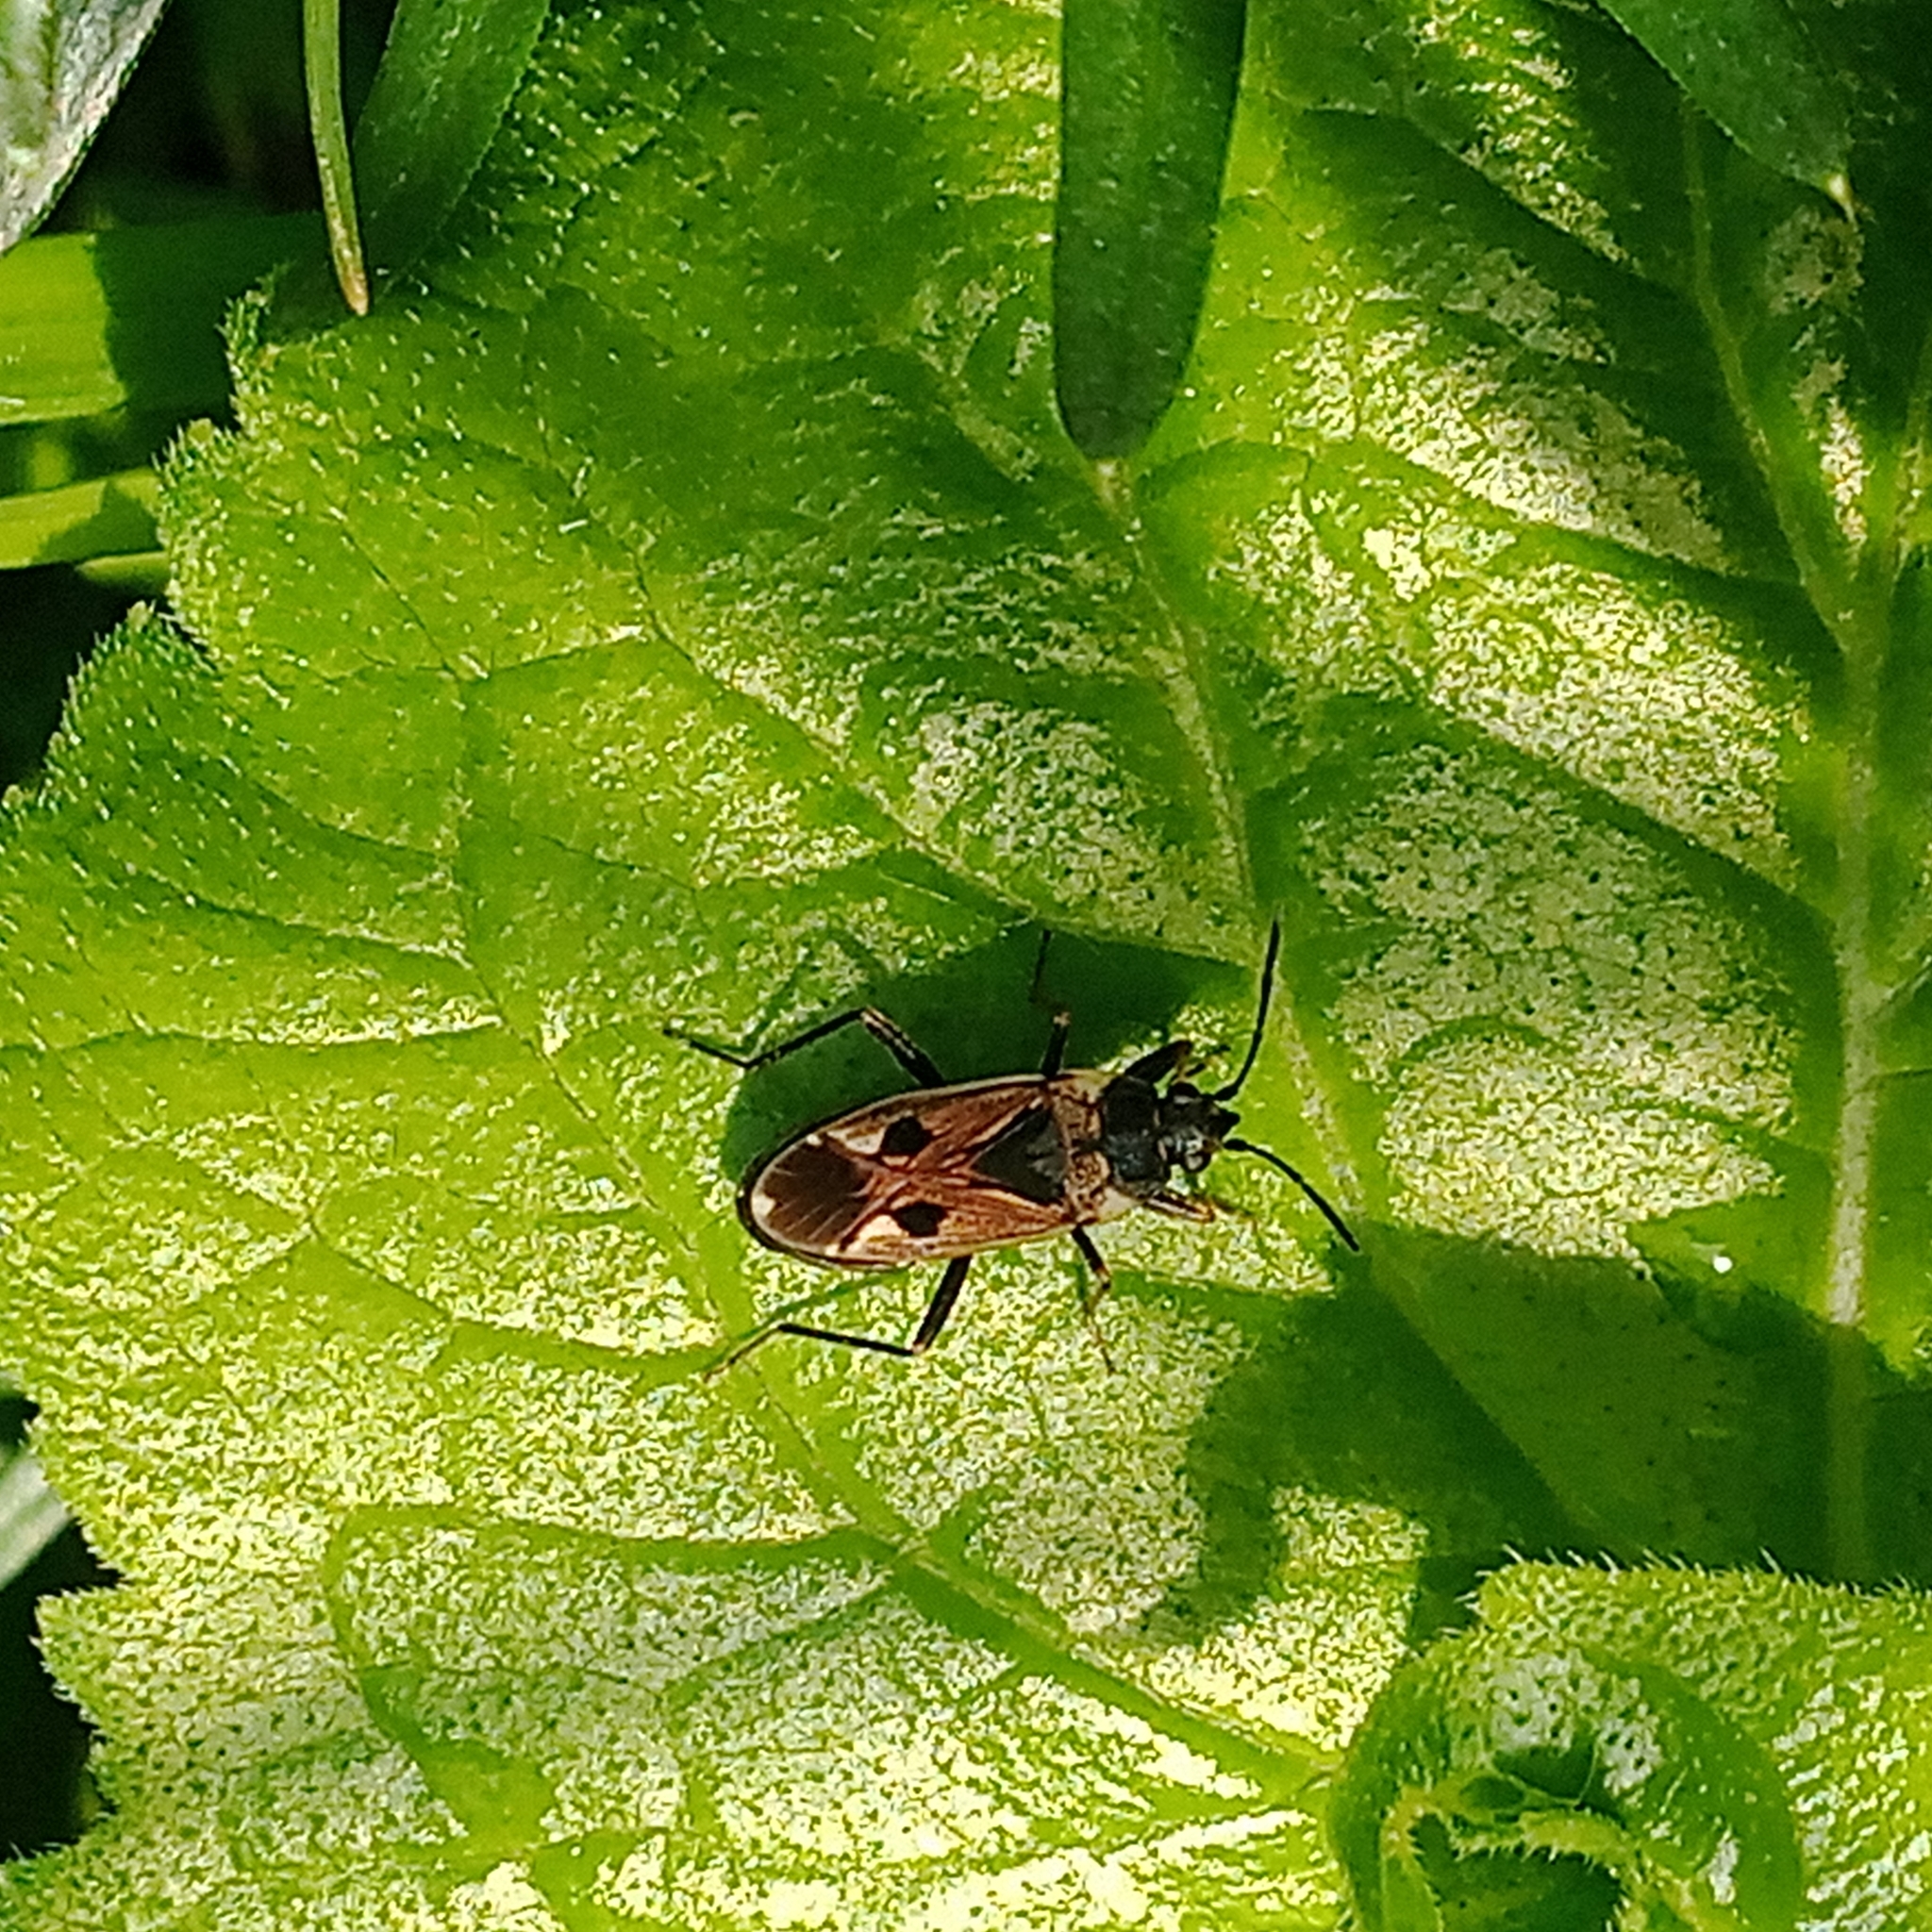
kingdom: Animalia
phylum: Arthropoda
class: Insecta
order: Hemiptera
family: Rhyparochromidae
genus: Rhyparochromus
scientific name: Rhyparochromus vulgaris
